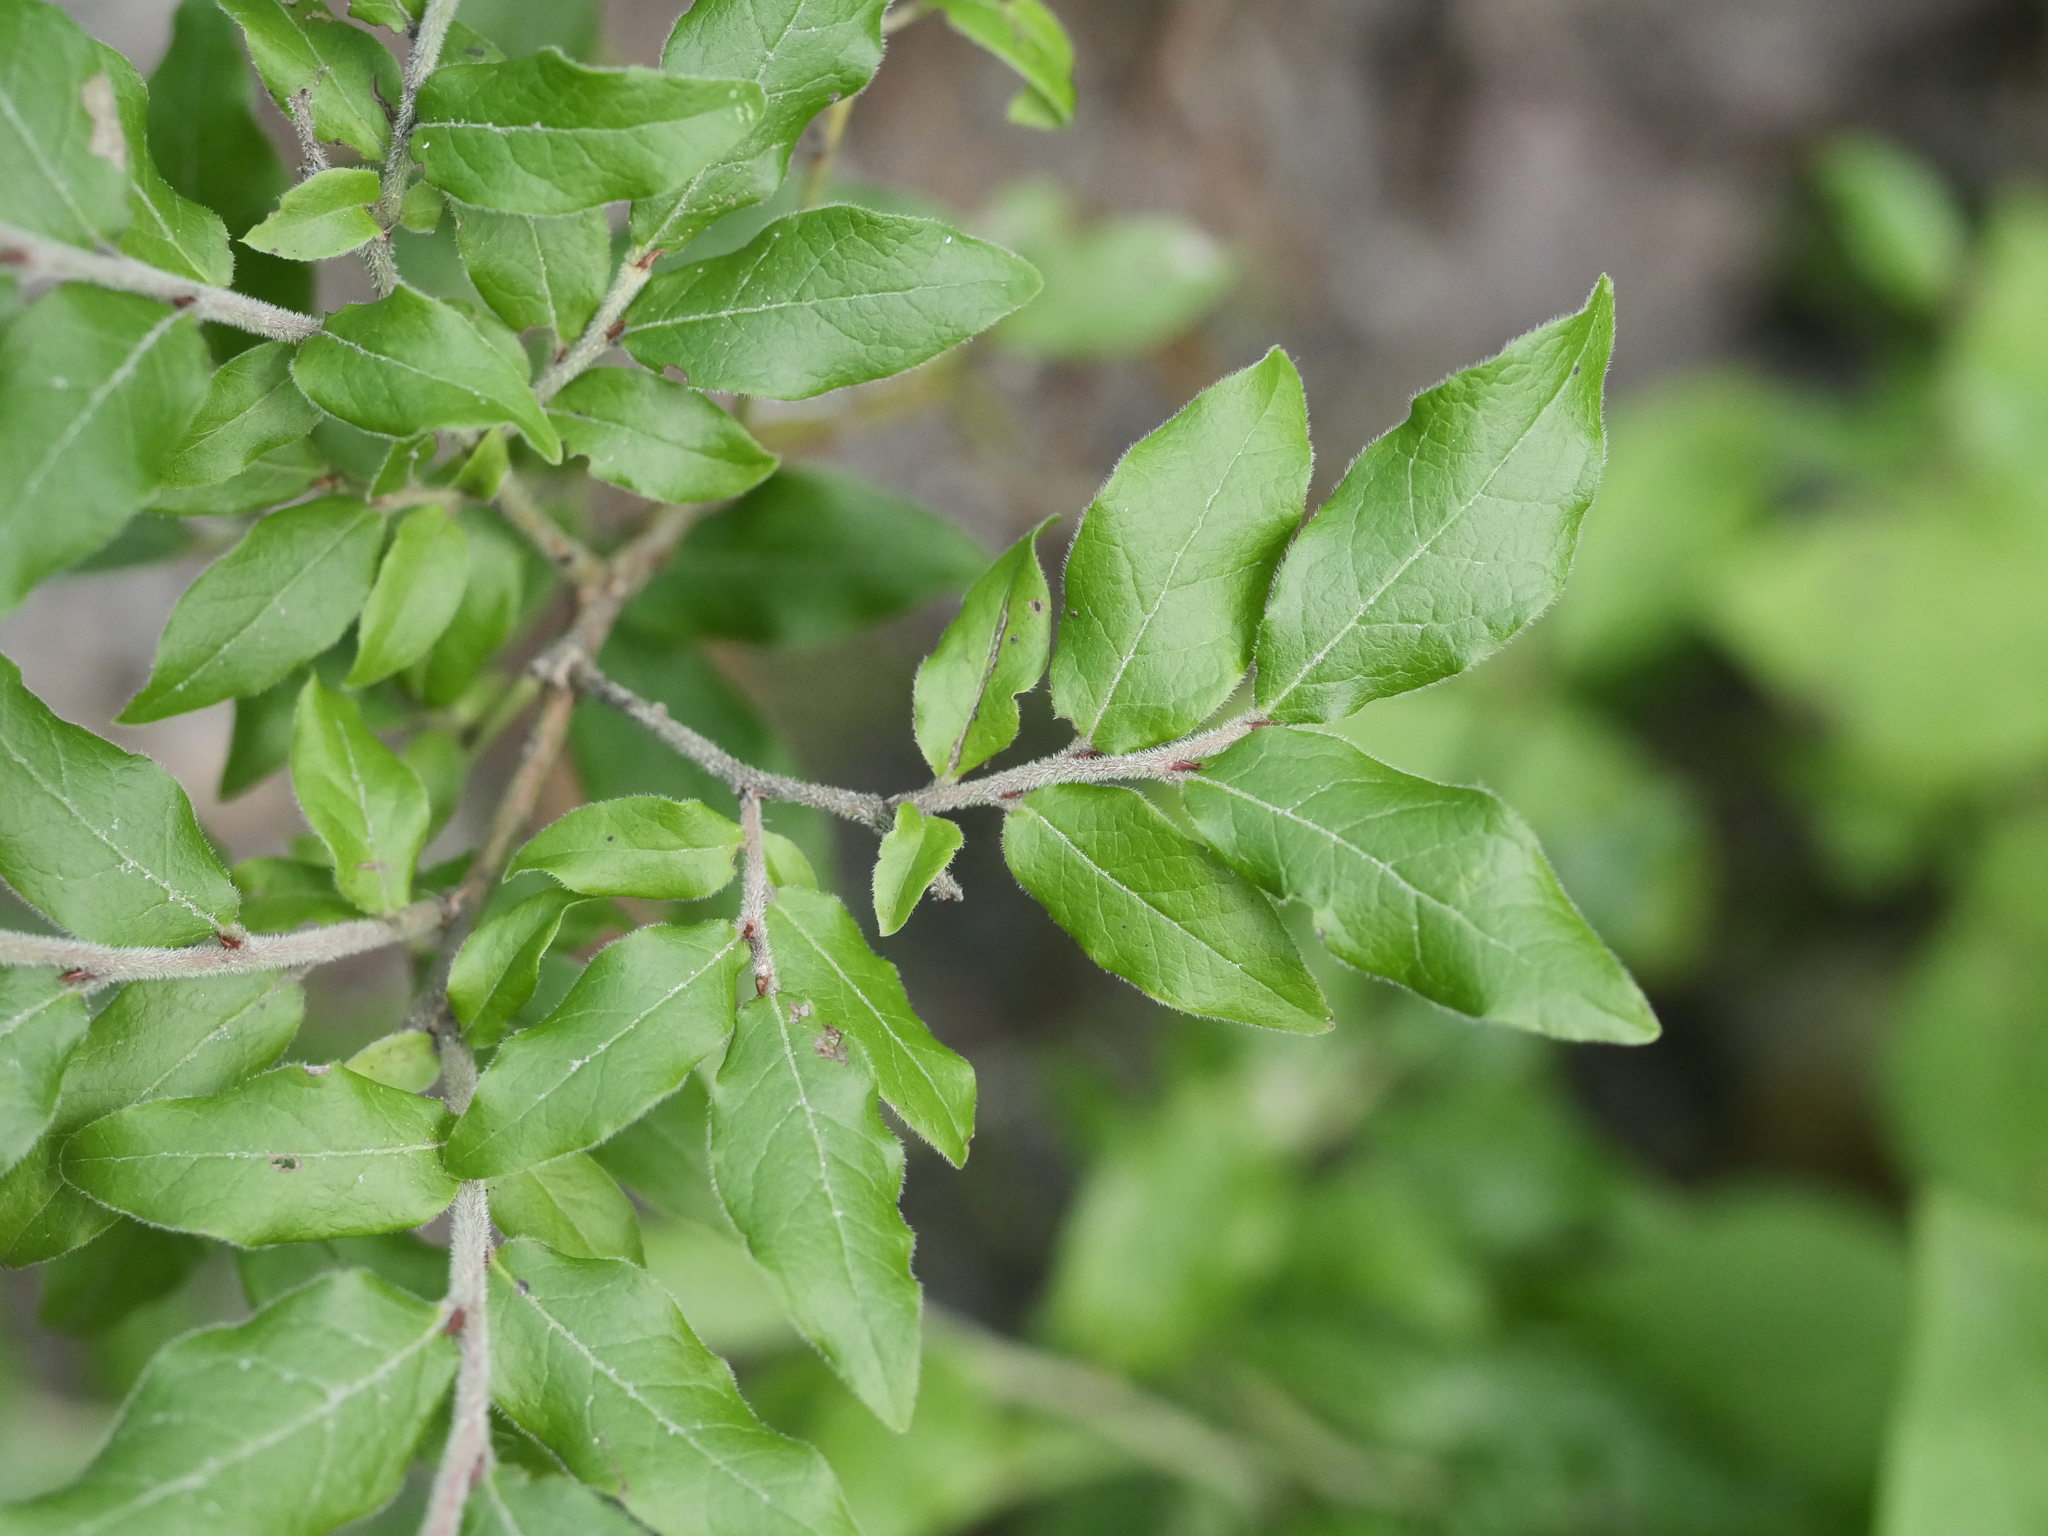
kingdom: Plantae
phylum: Tracheophyta
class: Magnoliopsida
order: Ericales
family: Ericaceae
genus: Vaccinium
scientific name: Vaccinium myrtilloides
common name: Canada blueberry
